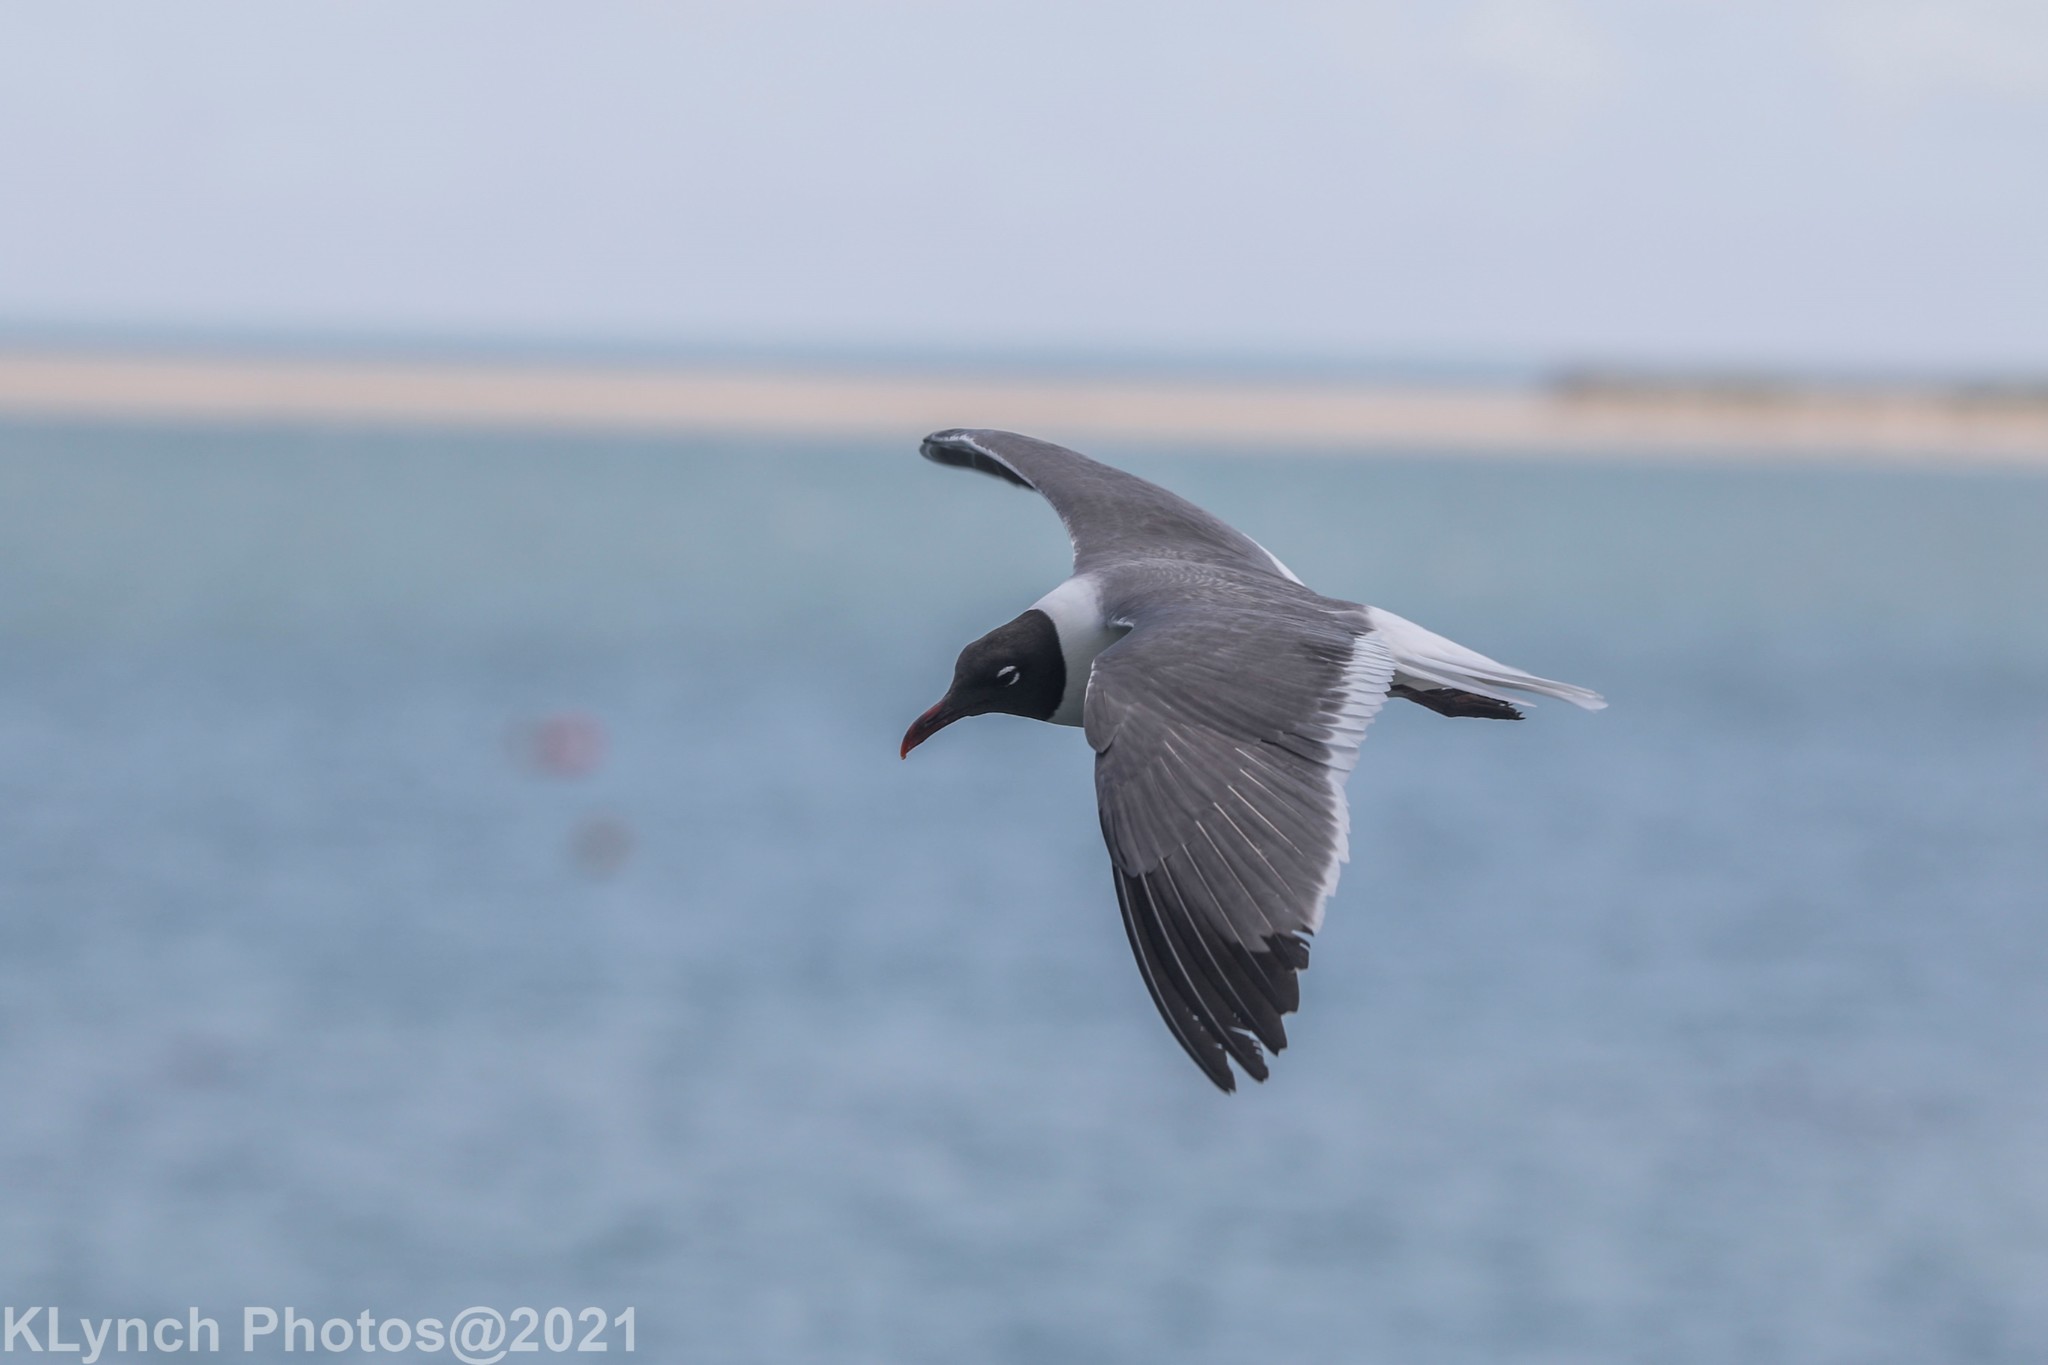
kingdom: Animalia
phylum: Chordata
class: Aves
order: Charadriiformes
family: Laridae
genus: Leucophaeus
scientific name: Leucophaeus atricilla
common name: Laughing gull
